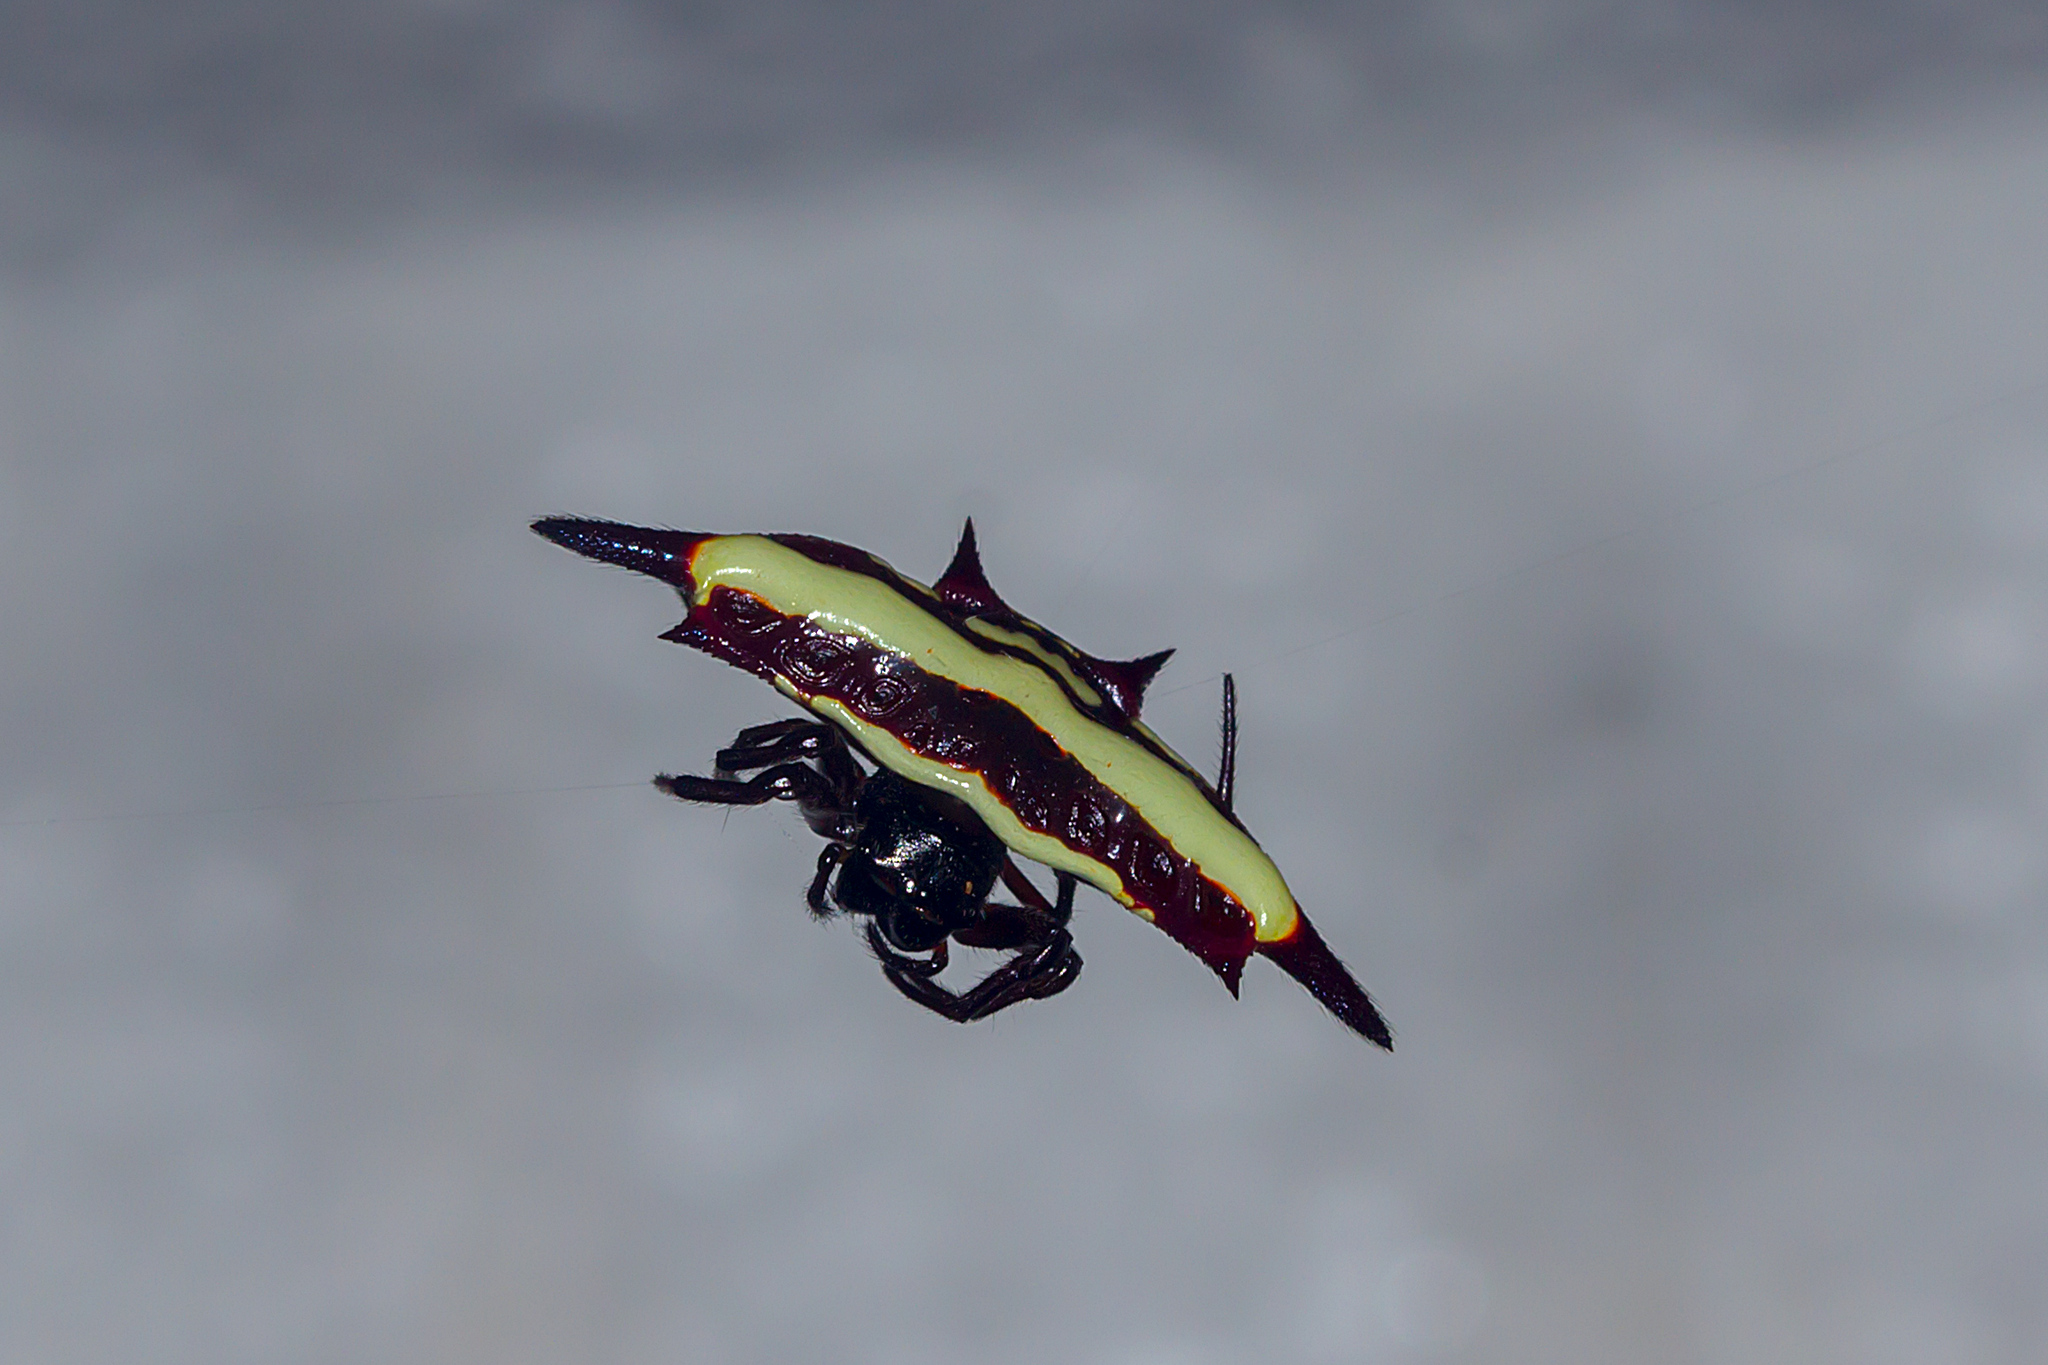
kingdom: Animalia
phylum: Arthropoda
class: Arachnida
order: Araneae
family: Araneidae
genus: Gasteracantha
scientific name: Gasteracantha fornicata
